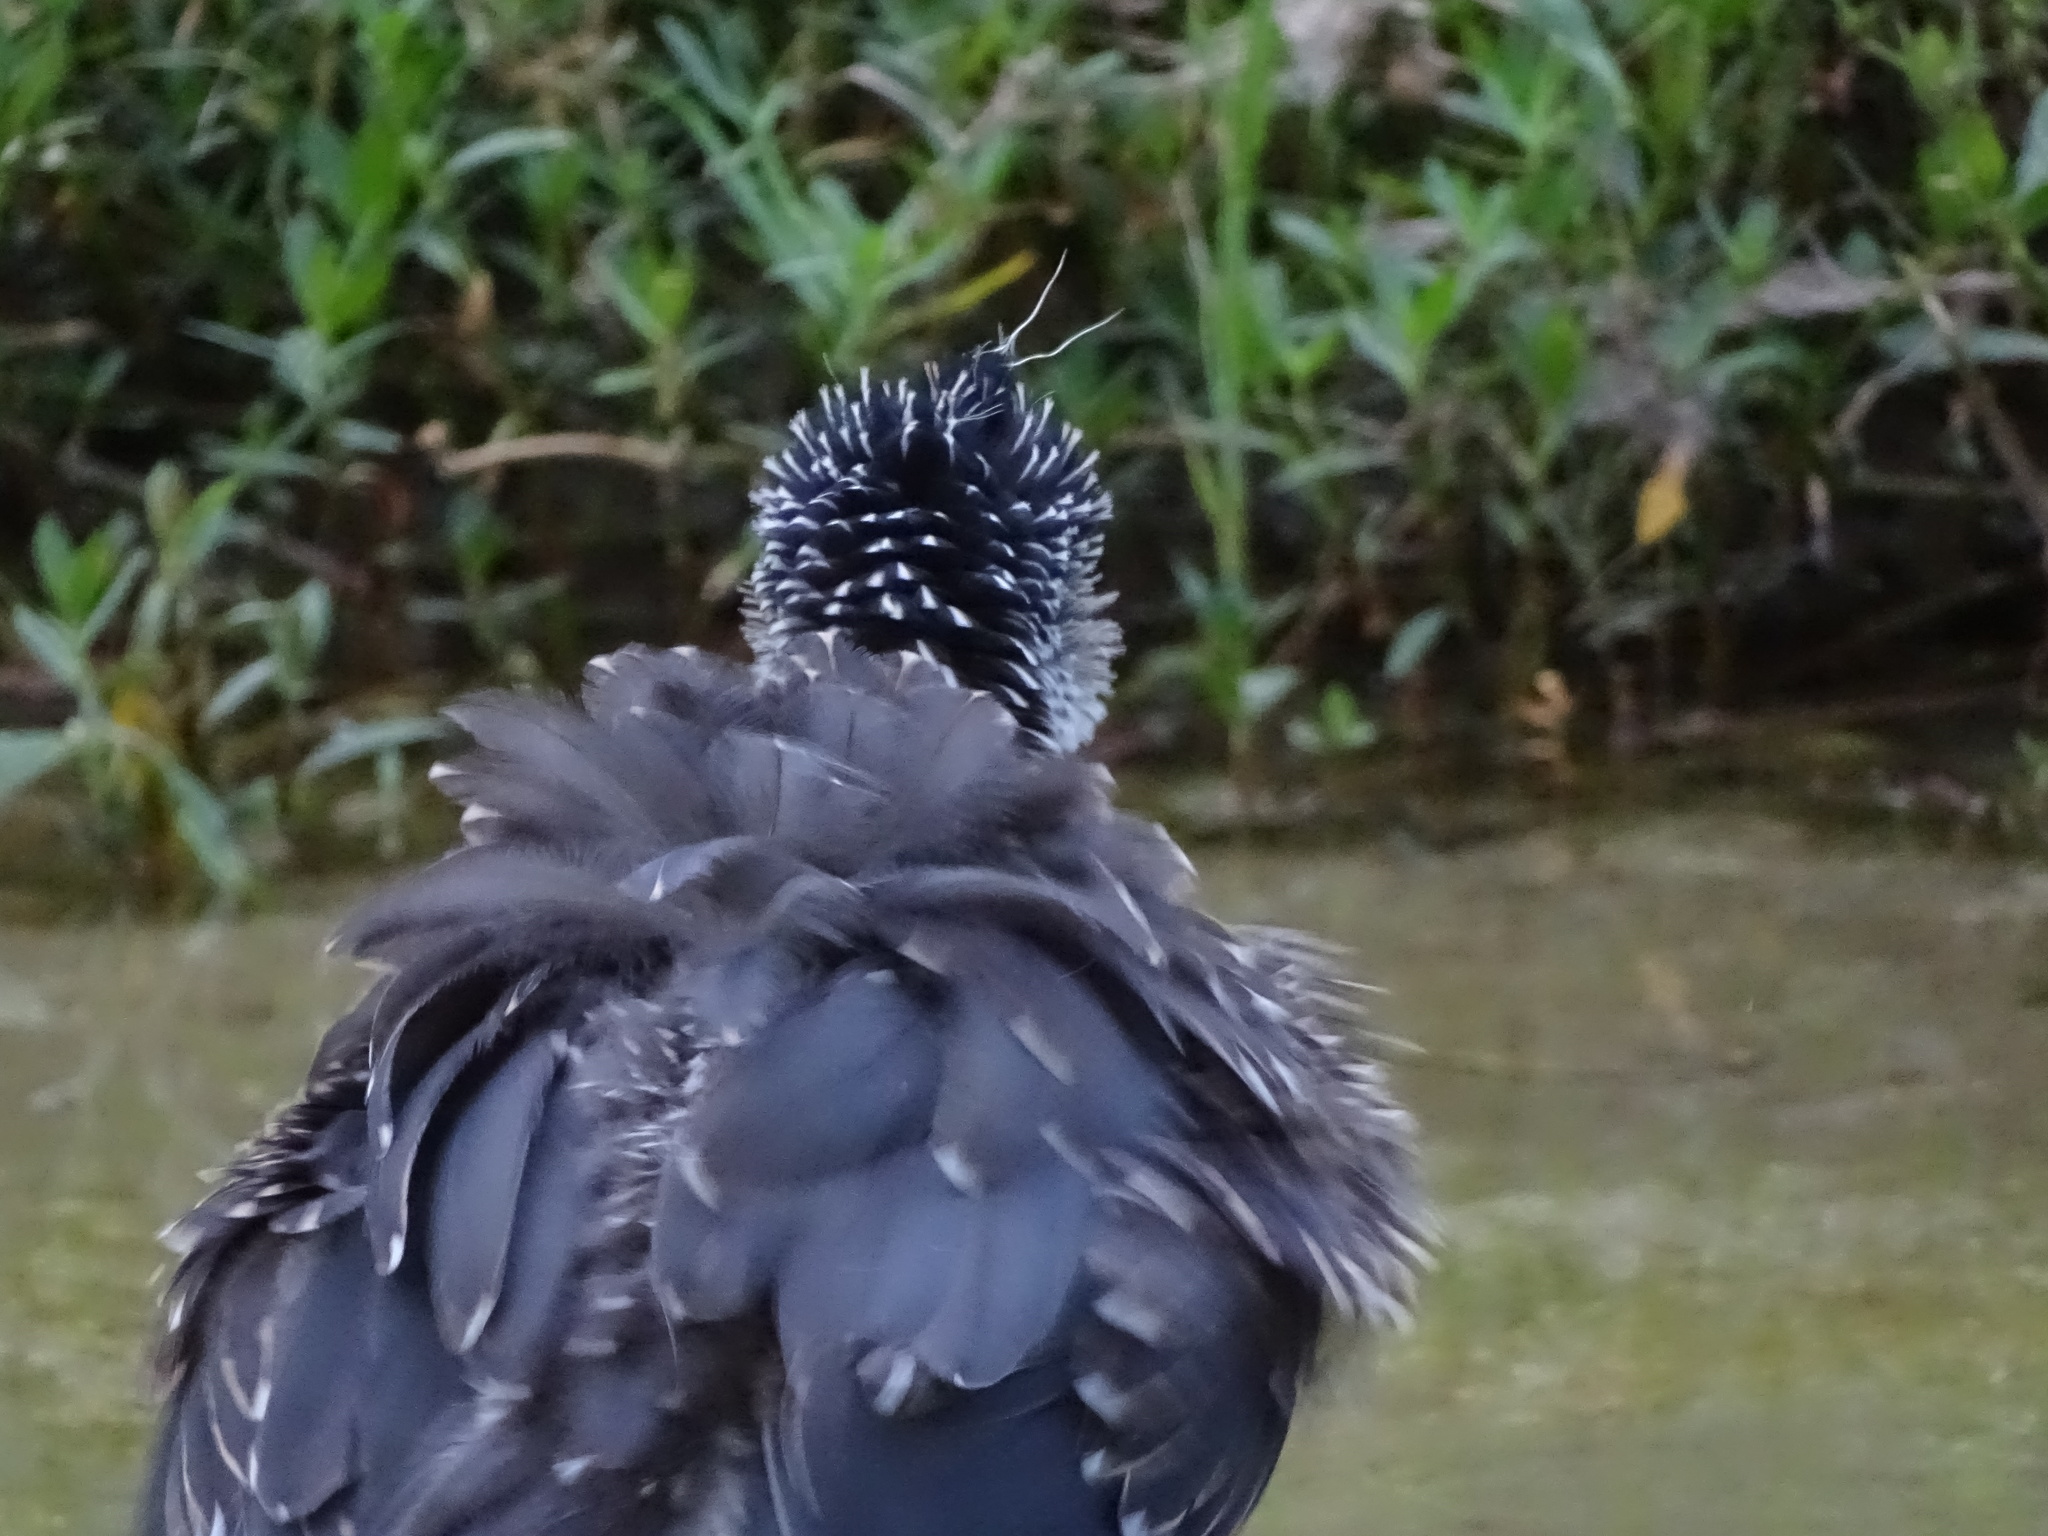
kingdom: Animalia
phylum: Chordata
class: Aves
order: Pelecaniformes
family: Ardeidae
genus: Nyctanassa
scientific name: Nyctanassa violacea
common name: Yellow-crowned night heron
